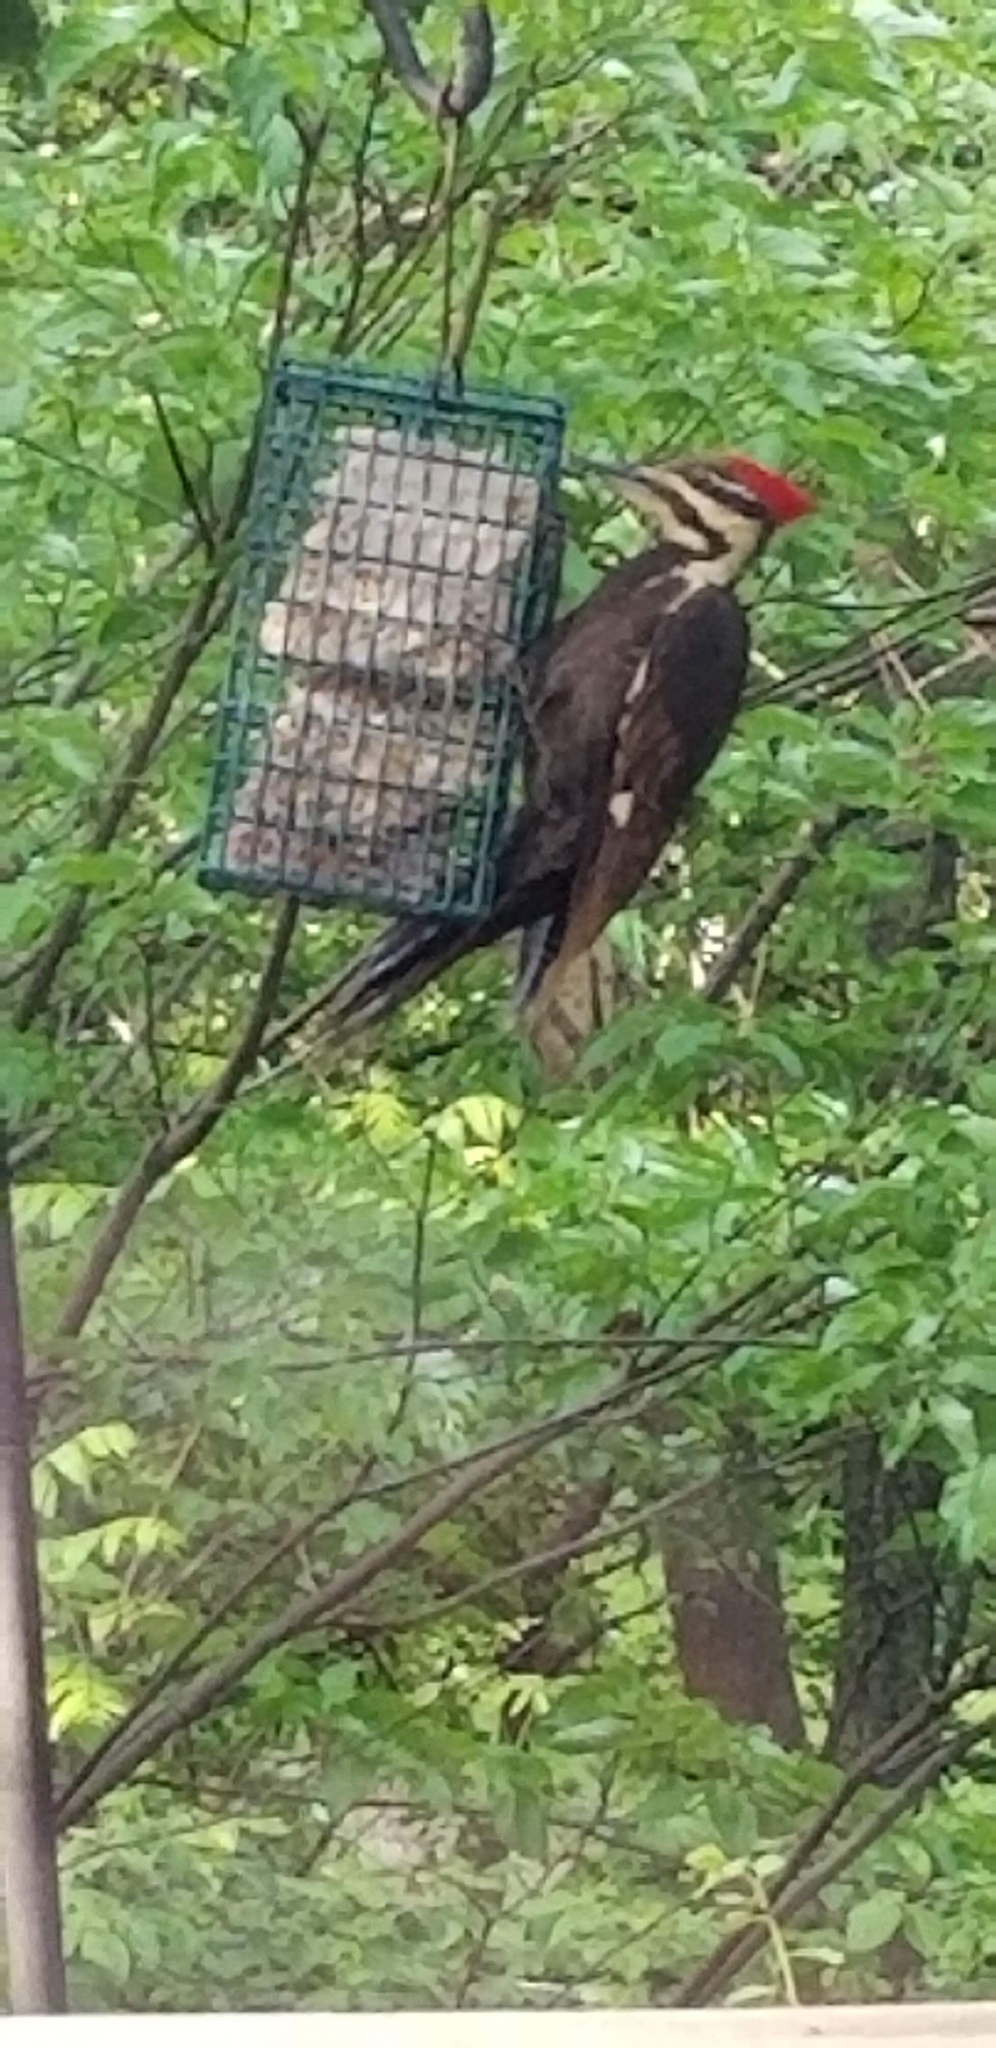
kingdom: Animalia
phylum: Chordata
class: Aves
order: Piciformes
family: Picidae
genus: Dryocopus
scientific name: Dryocopus pileatus
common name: Pileated woodpecker
